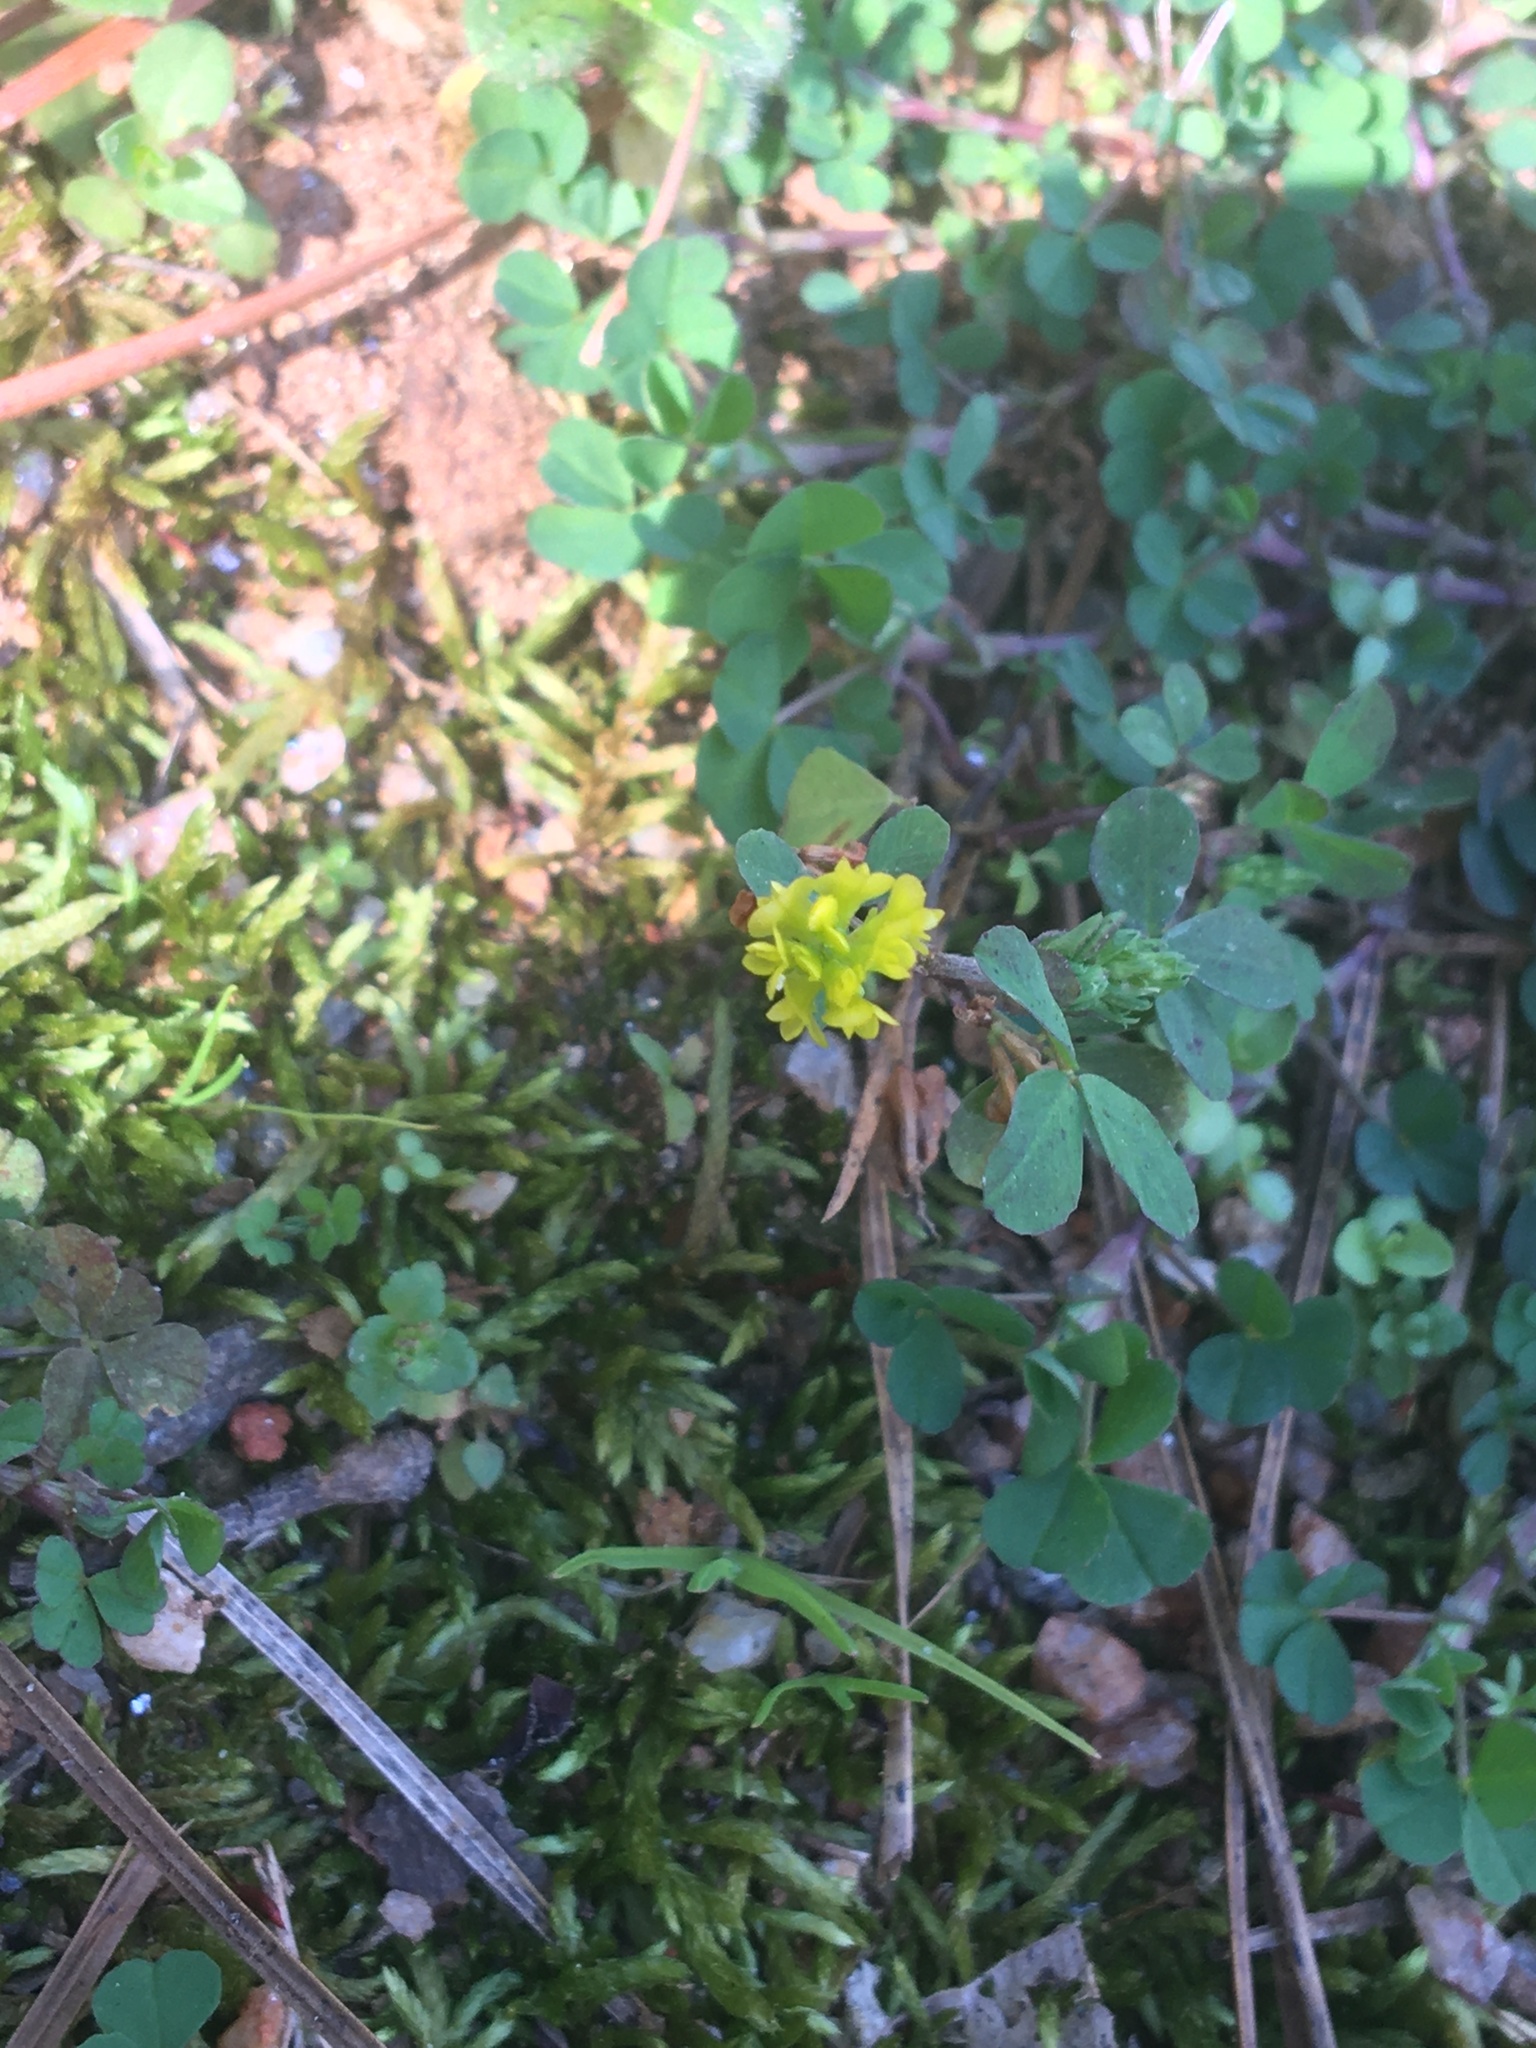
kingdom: Plantae
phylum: Tracheophyta
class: Magnoliopsida
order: Fabales
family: Fabaceae
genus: Trifolium
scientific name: Trifolium dubium
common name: Suckling clover
